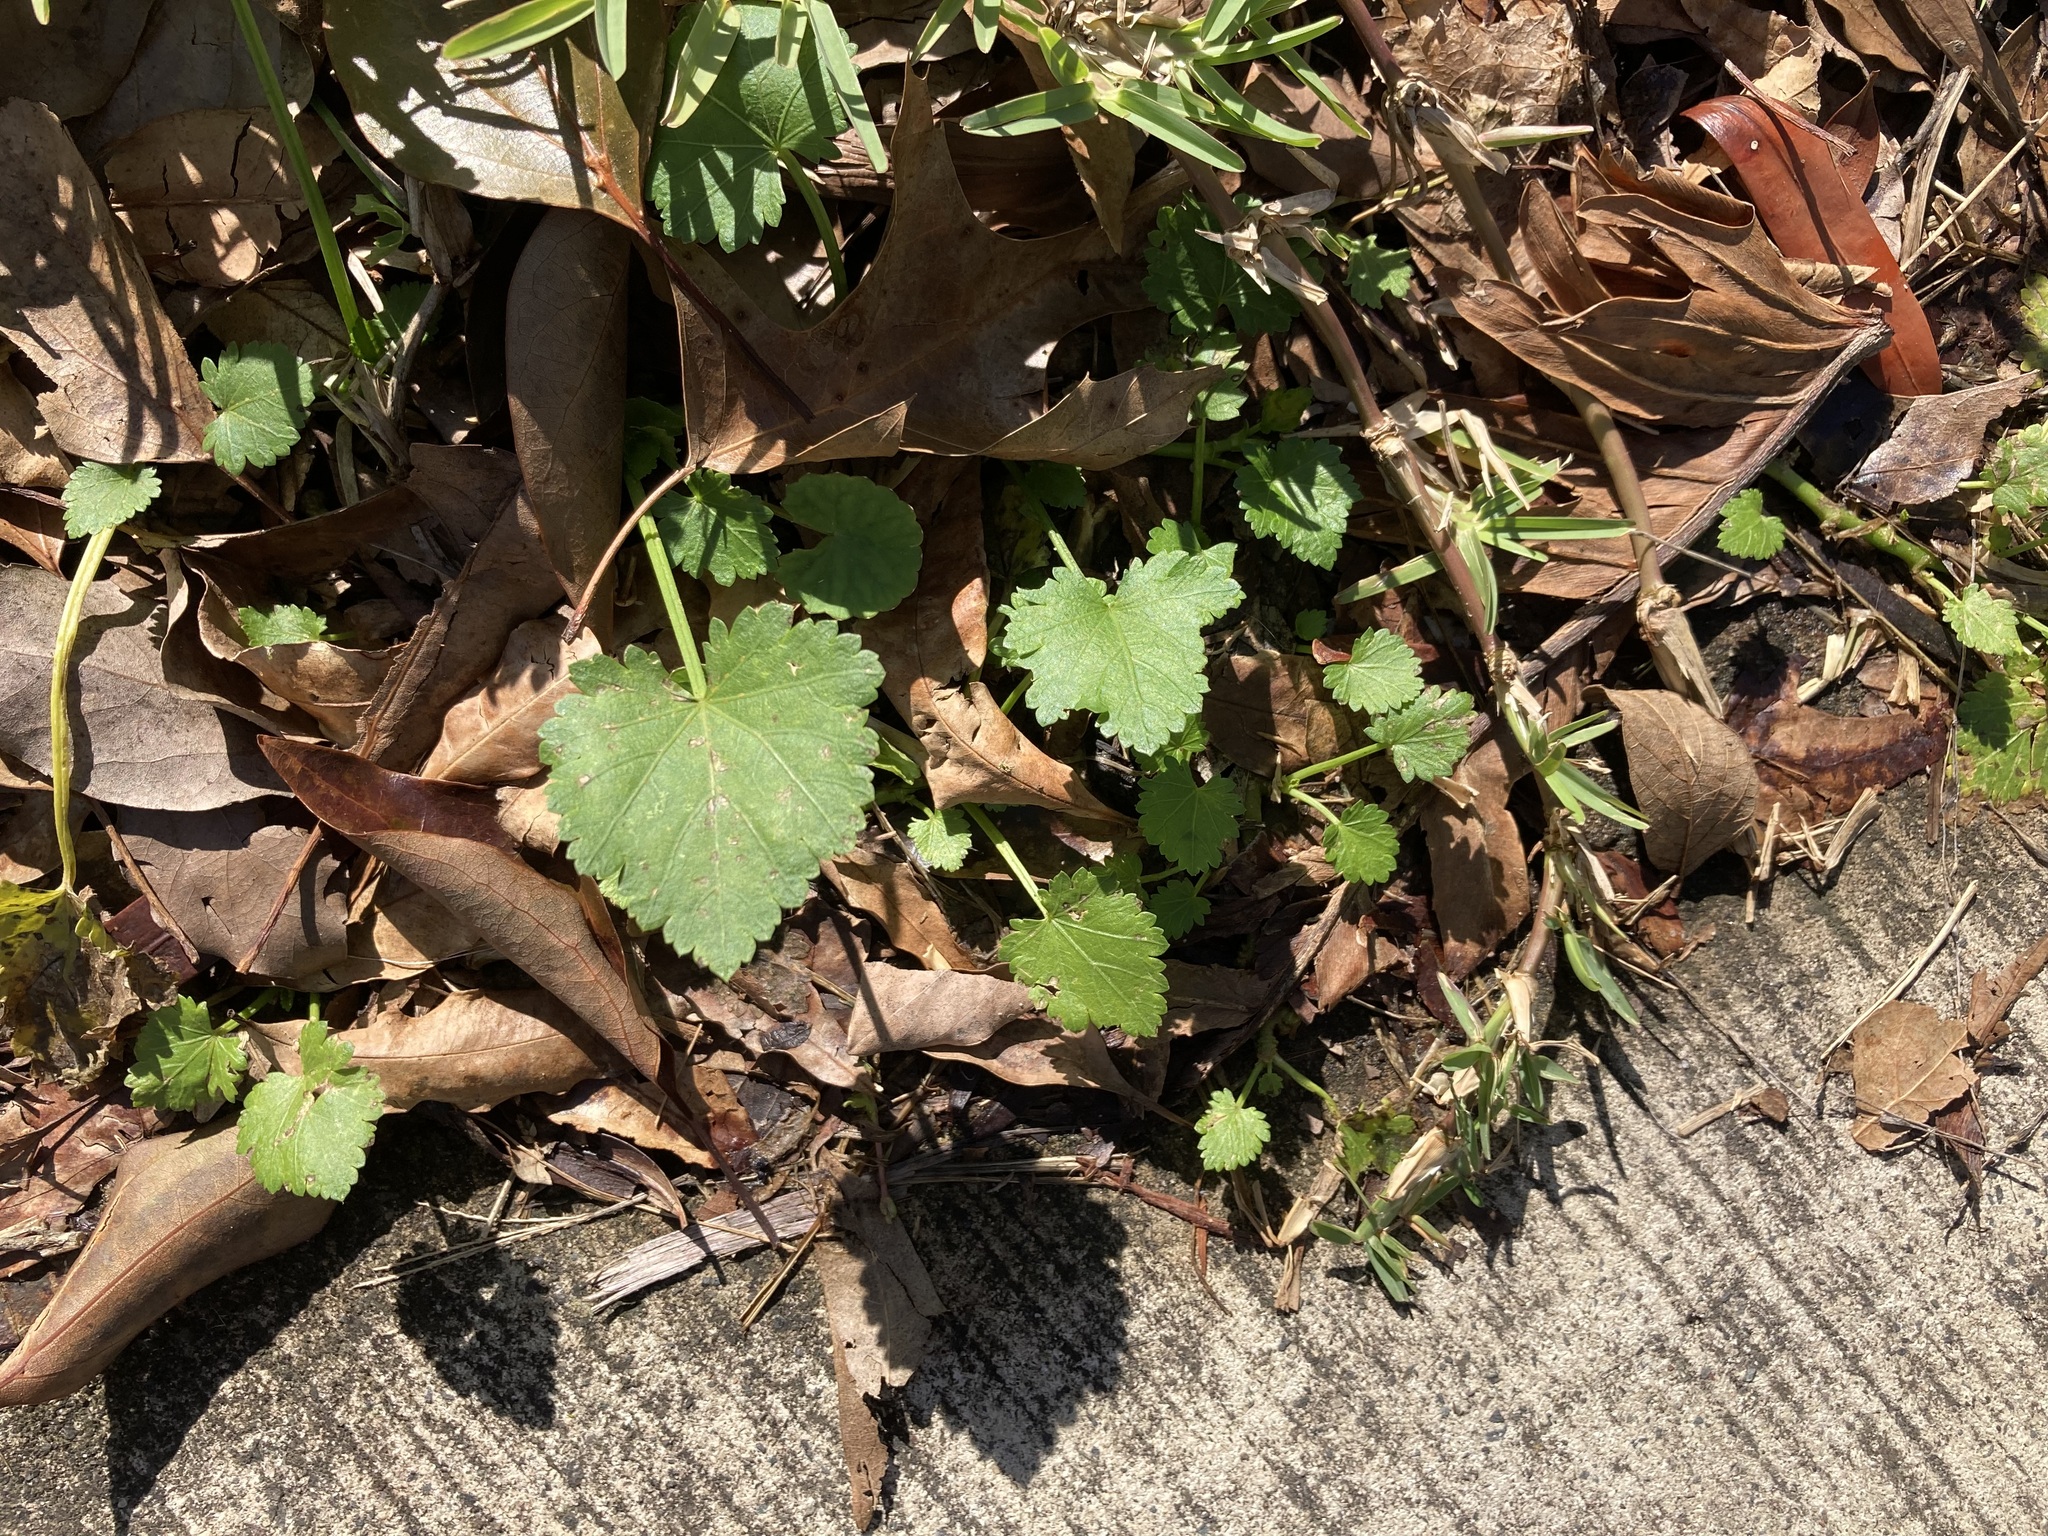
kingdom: Plantae
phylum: Tracheophyta
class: Magnoliopsida
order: Malvales
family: Malvaceae
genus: Modiola
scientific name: Modiola caroliniana
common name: Carolina bristlemallow
